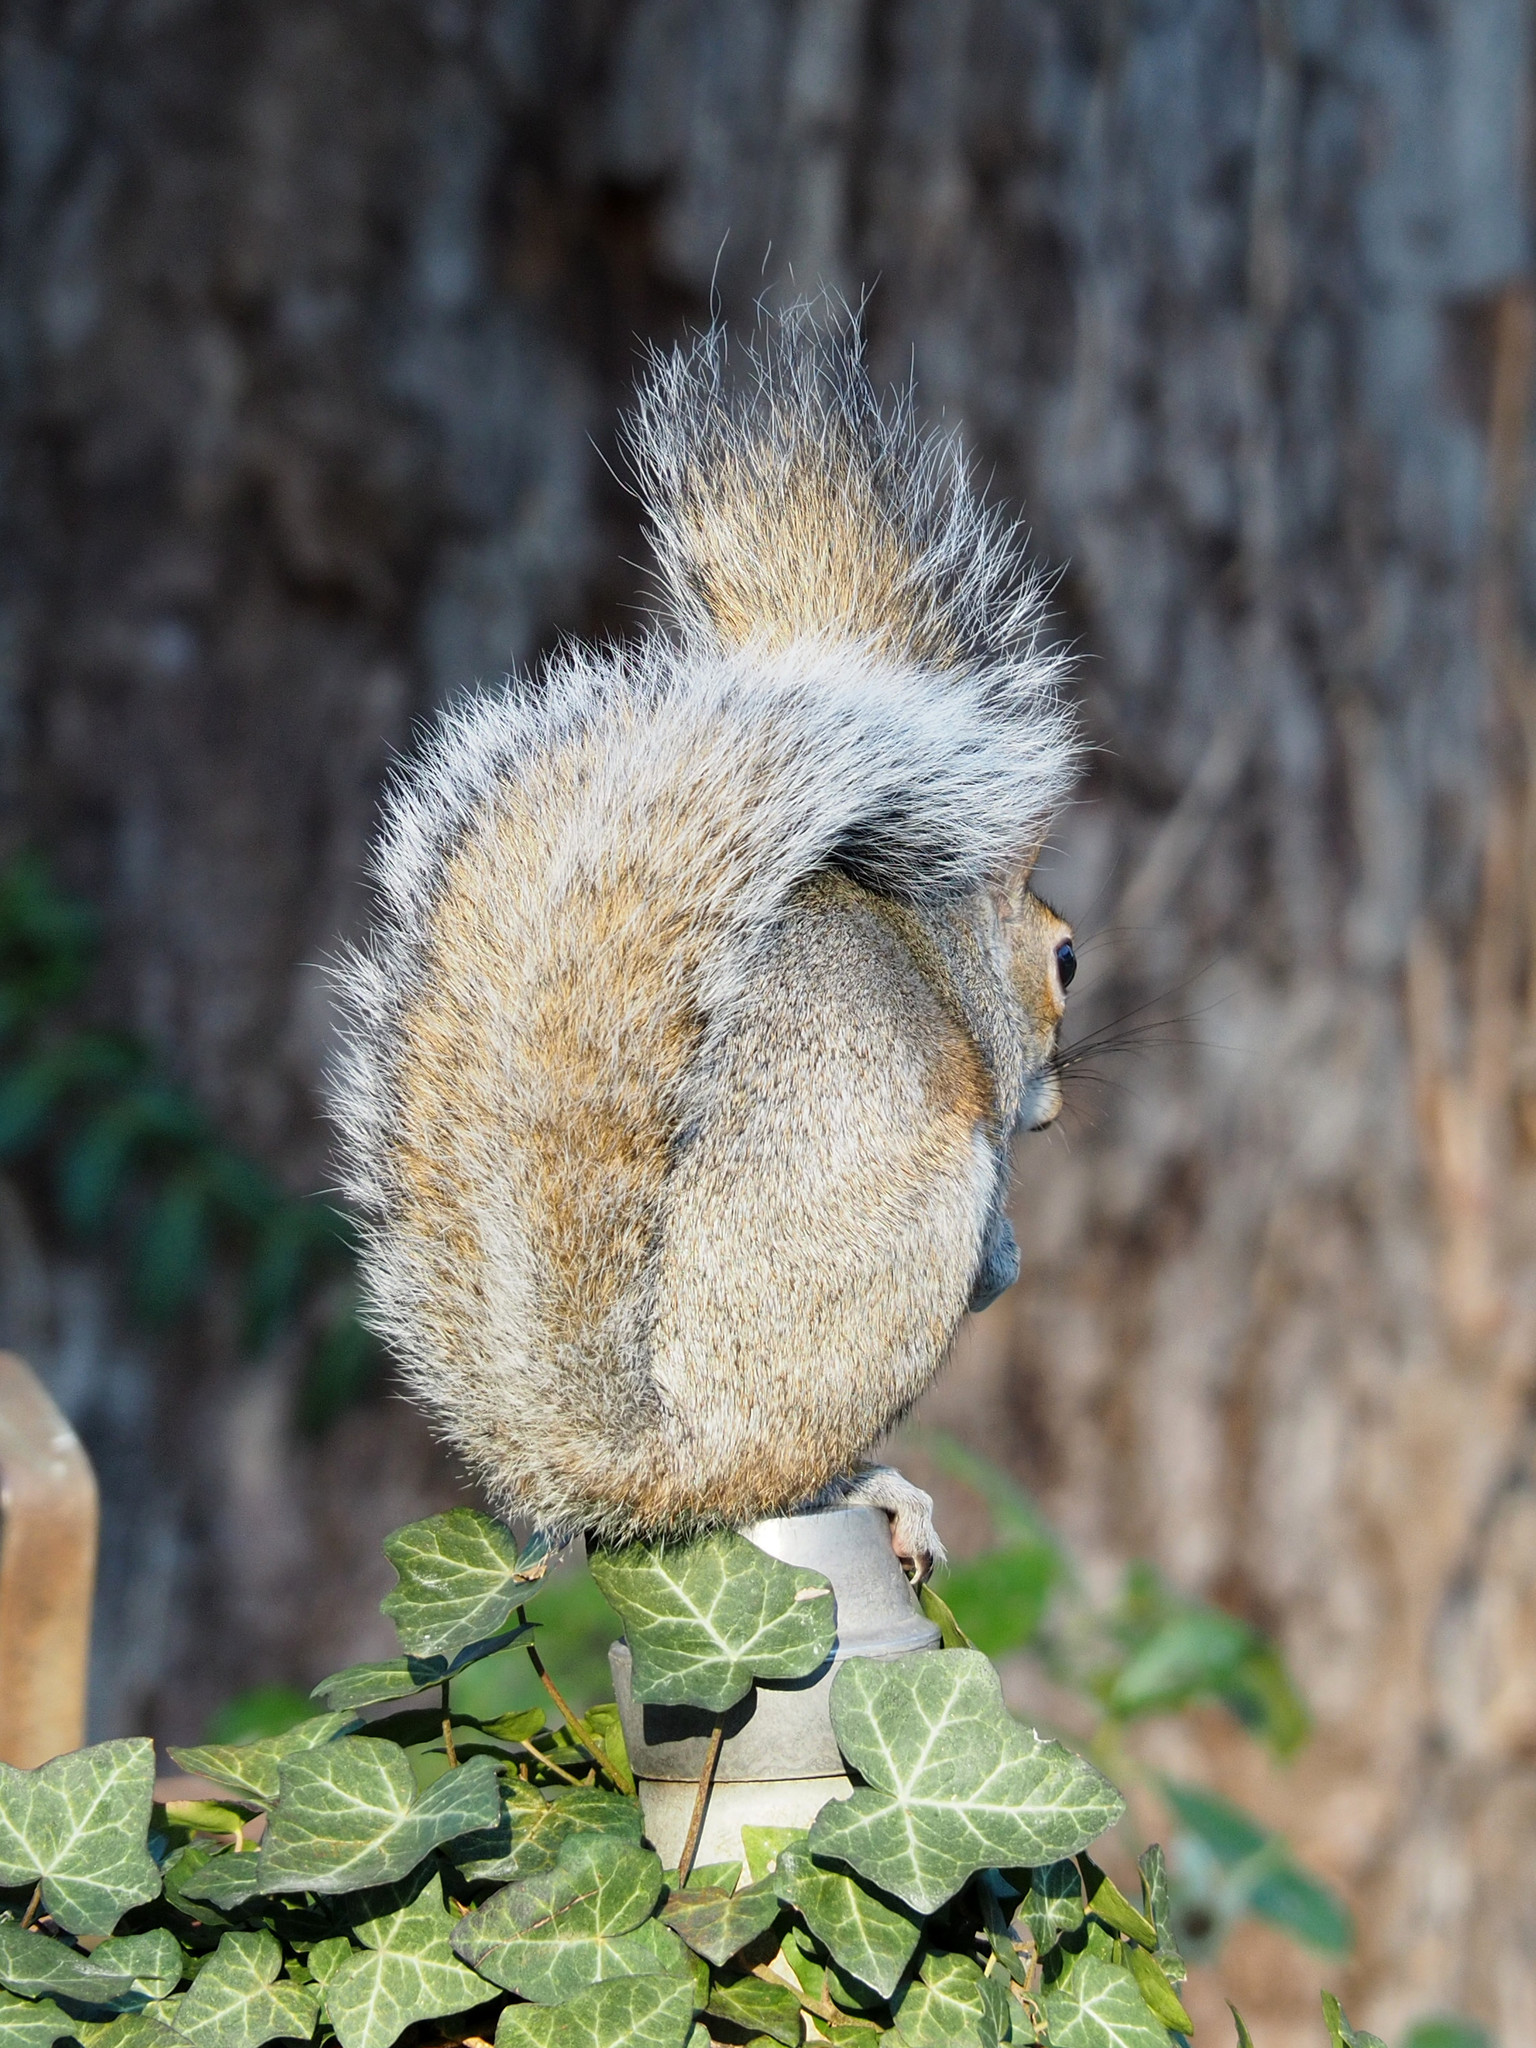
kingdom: Animalia
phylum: Chordata
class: Mammalia
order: Rodentia
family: Sciuridae
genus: Sciurus
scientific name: Sciurus carolinensis
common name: Eastern gray squirrel
